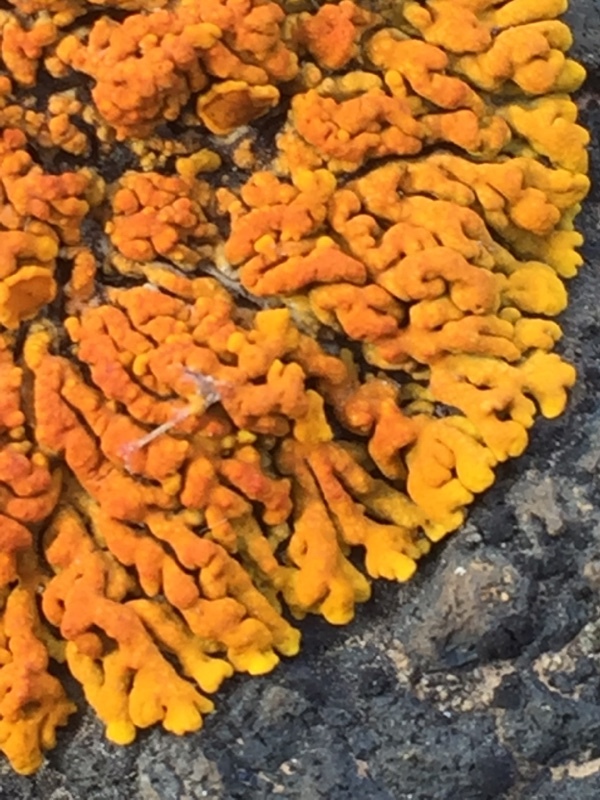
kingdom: Fungi
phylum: Ascomycota
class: Lecanoromycetes
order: Teloschistales
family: Teloschistaceae
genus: Xanthoria
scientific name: Xanthoria elegans
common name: Elegant sunburst lichen
